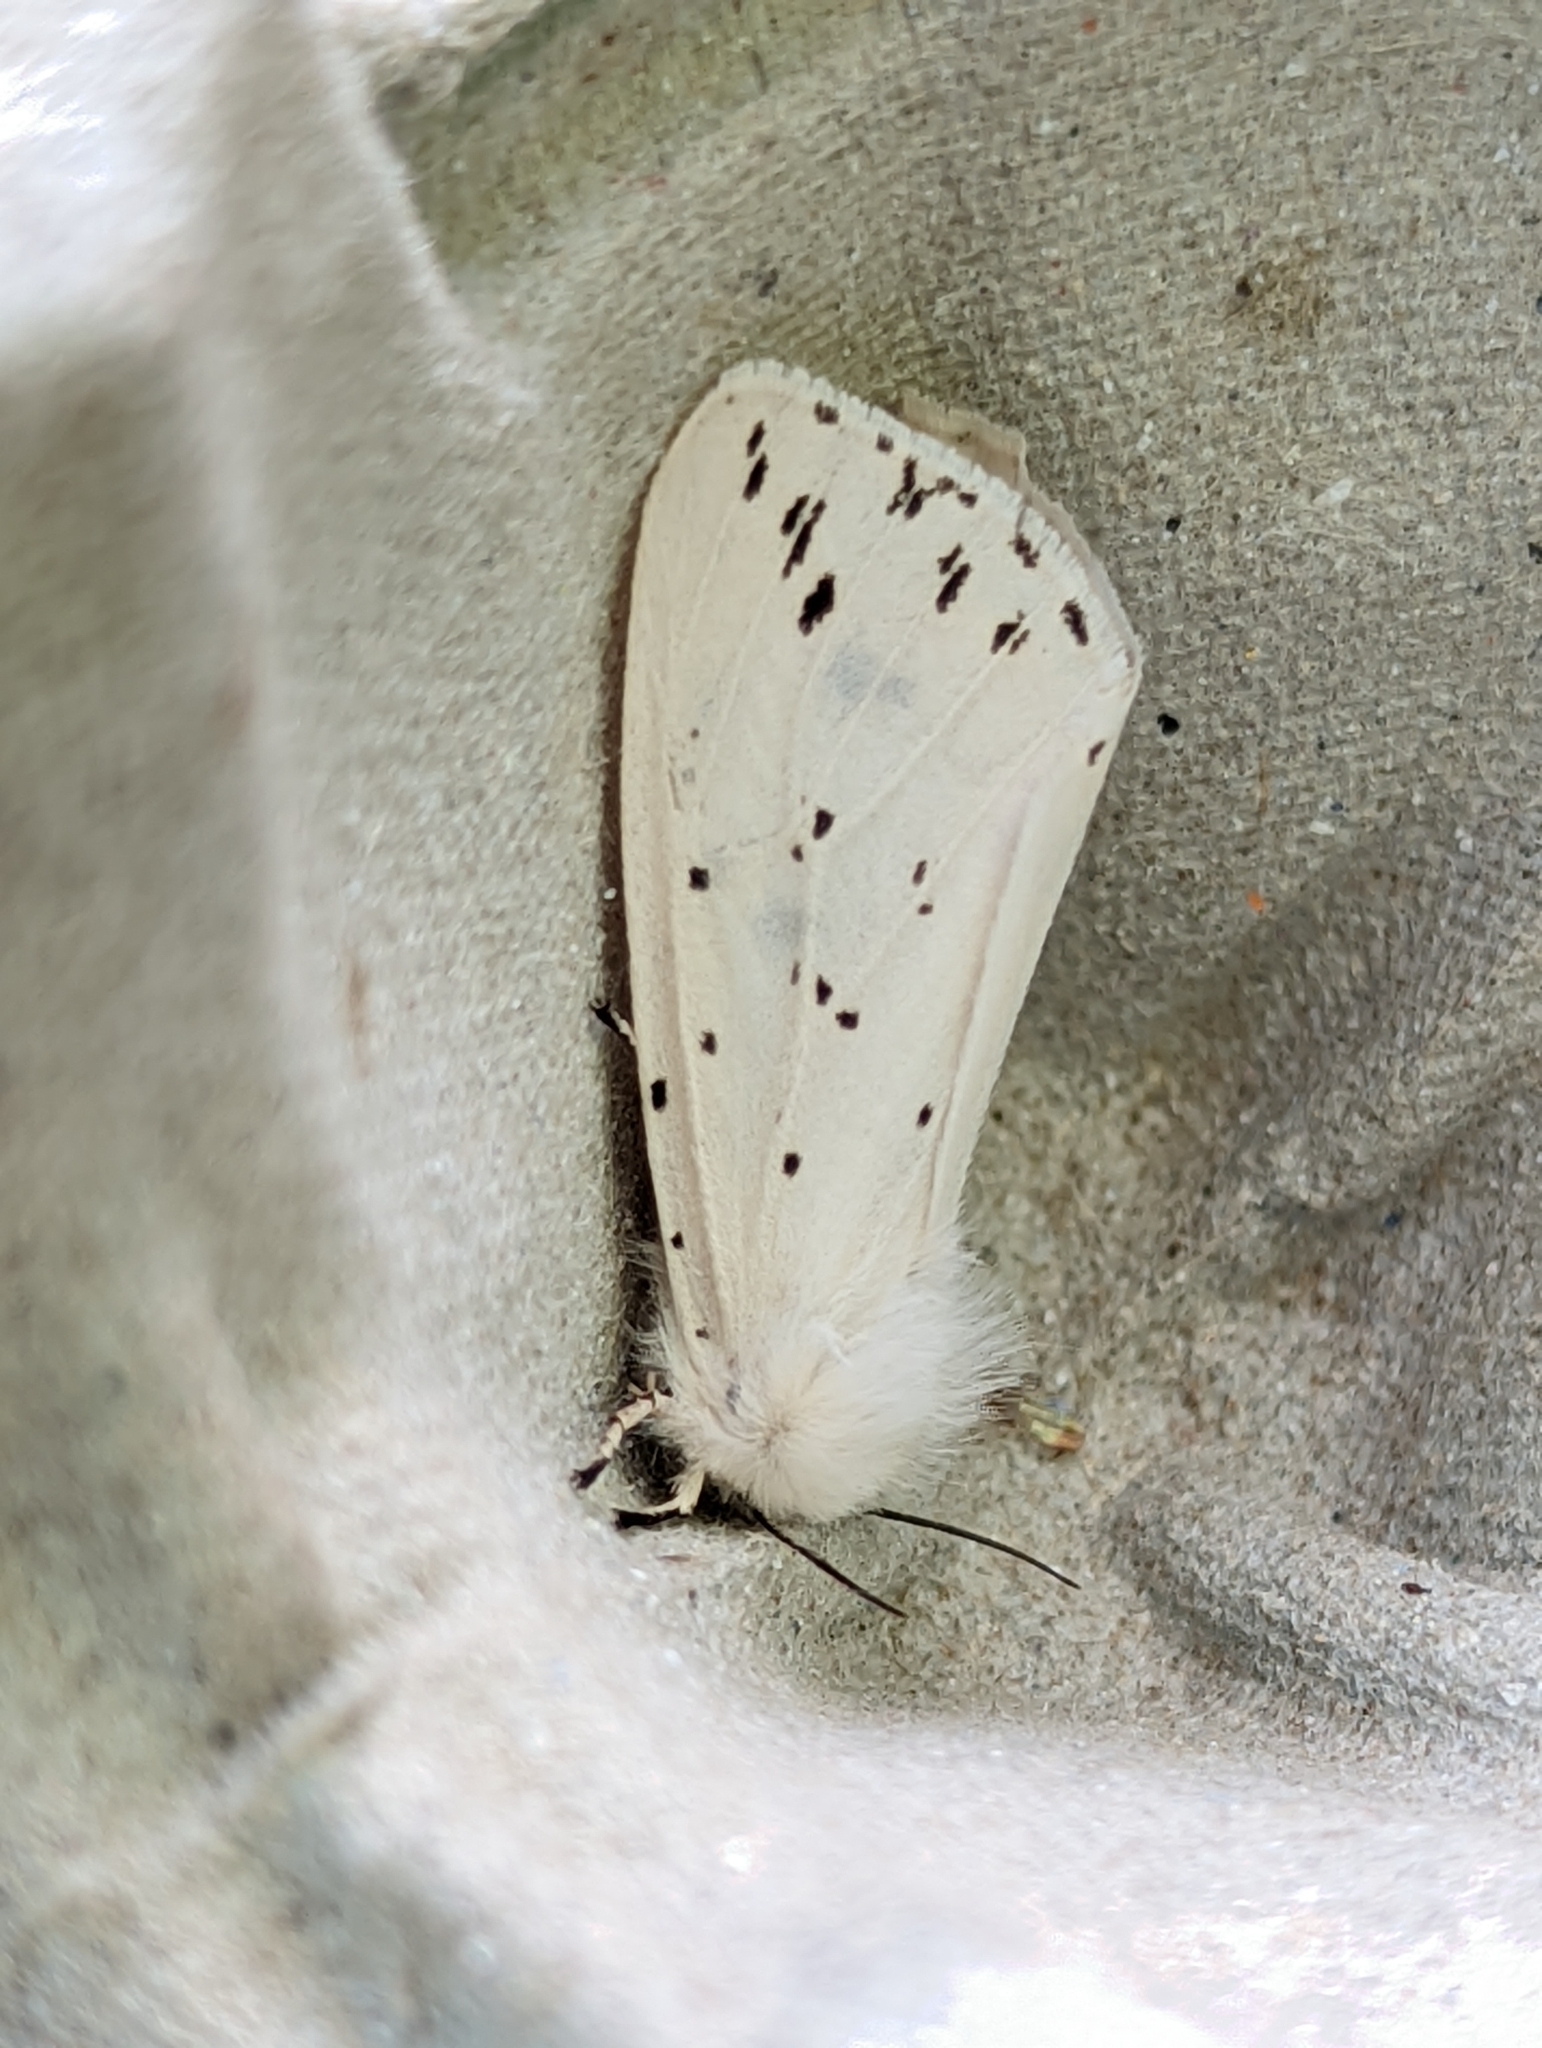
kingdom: Animalia
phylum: Arthropoda
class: Insecta
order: Lepidoptera
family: Erebidae
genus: Spilosoma
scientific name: Spilosoma lubricipeda
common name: White ermine
